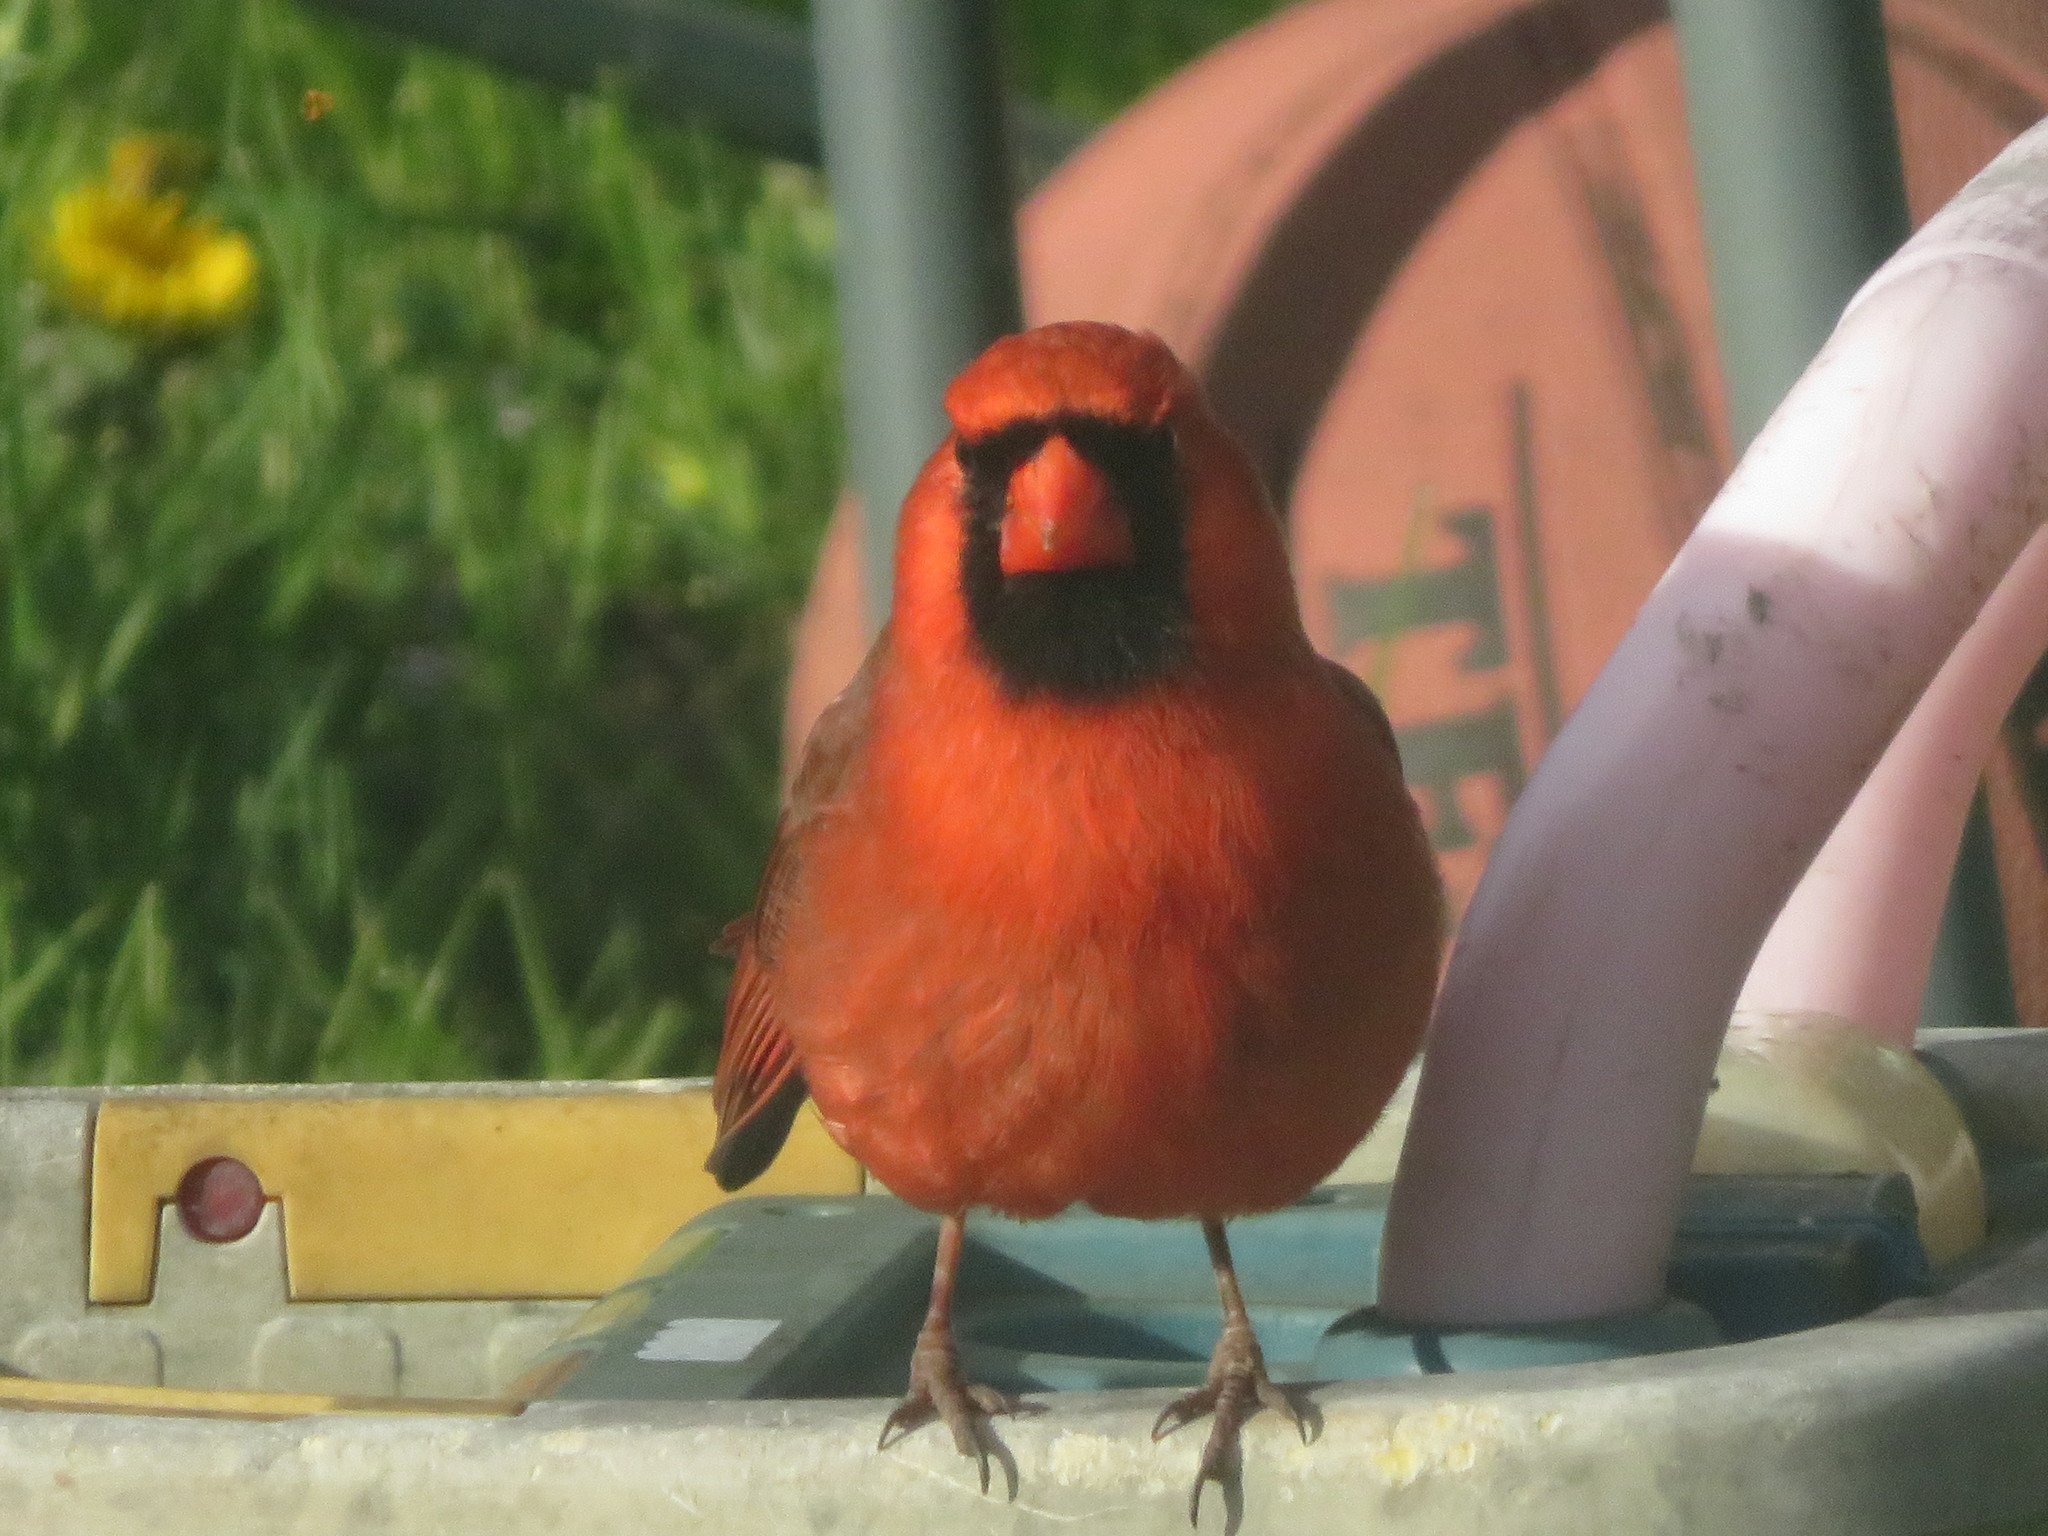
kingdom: Animalia
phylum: Chordata
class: Aves
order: Passeriformes
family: Cardinalidae
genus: Cardinalis
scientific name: Cardinalis cardinalis
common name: Northern cardinal
